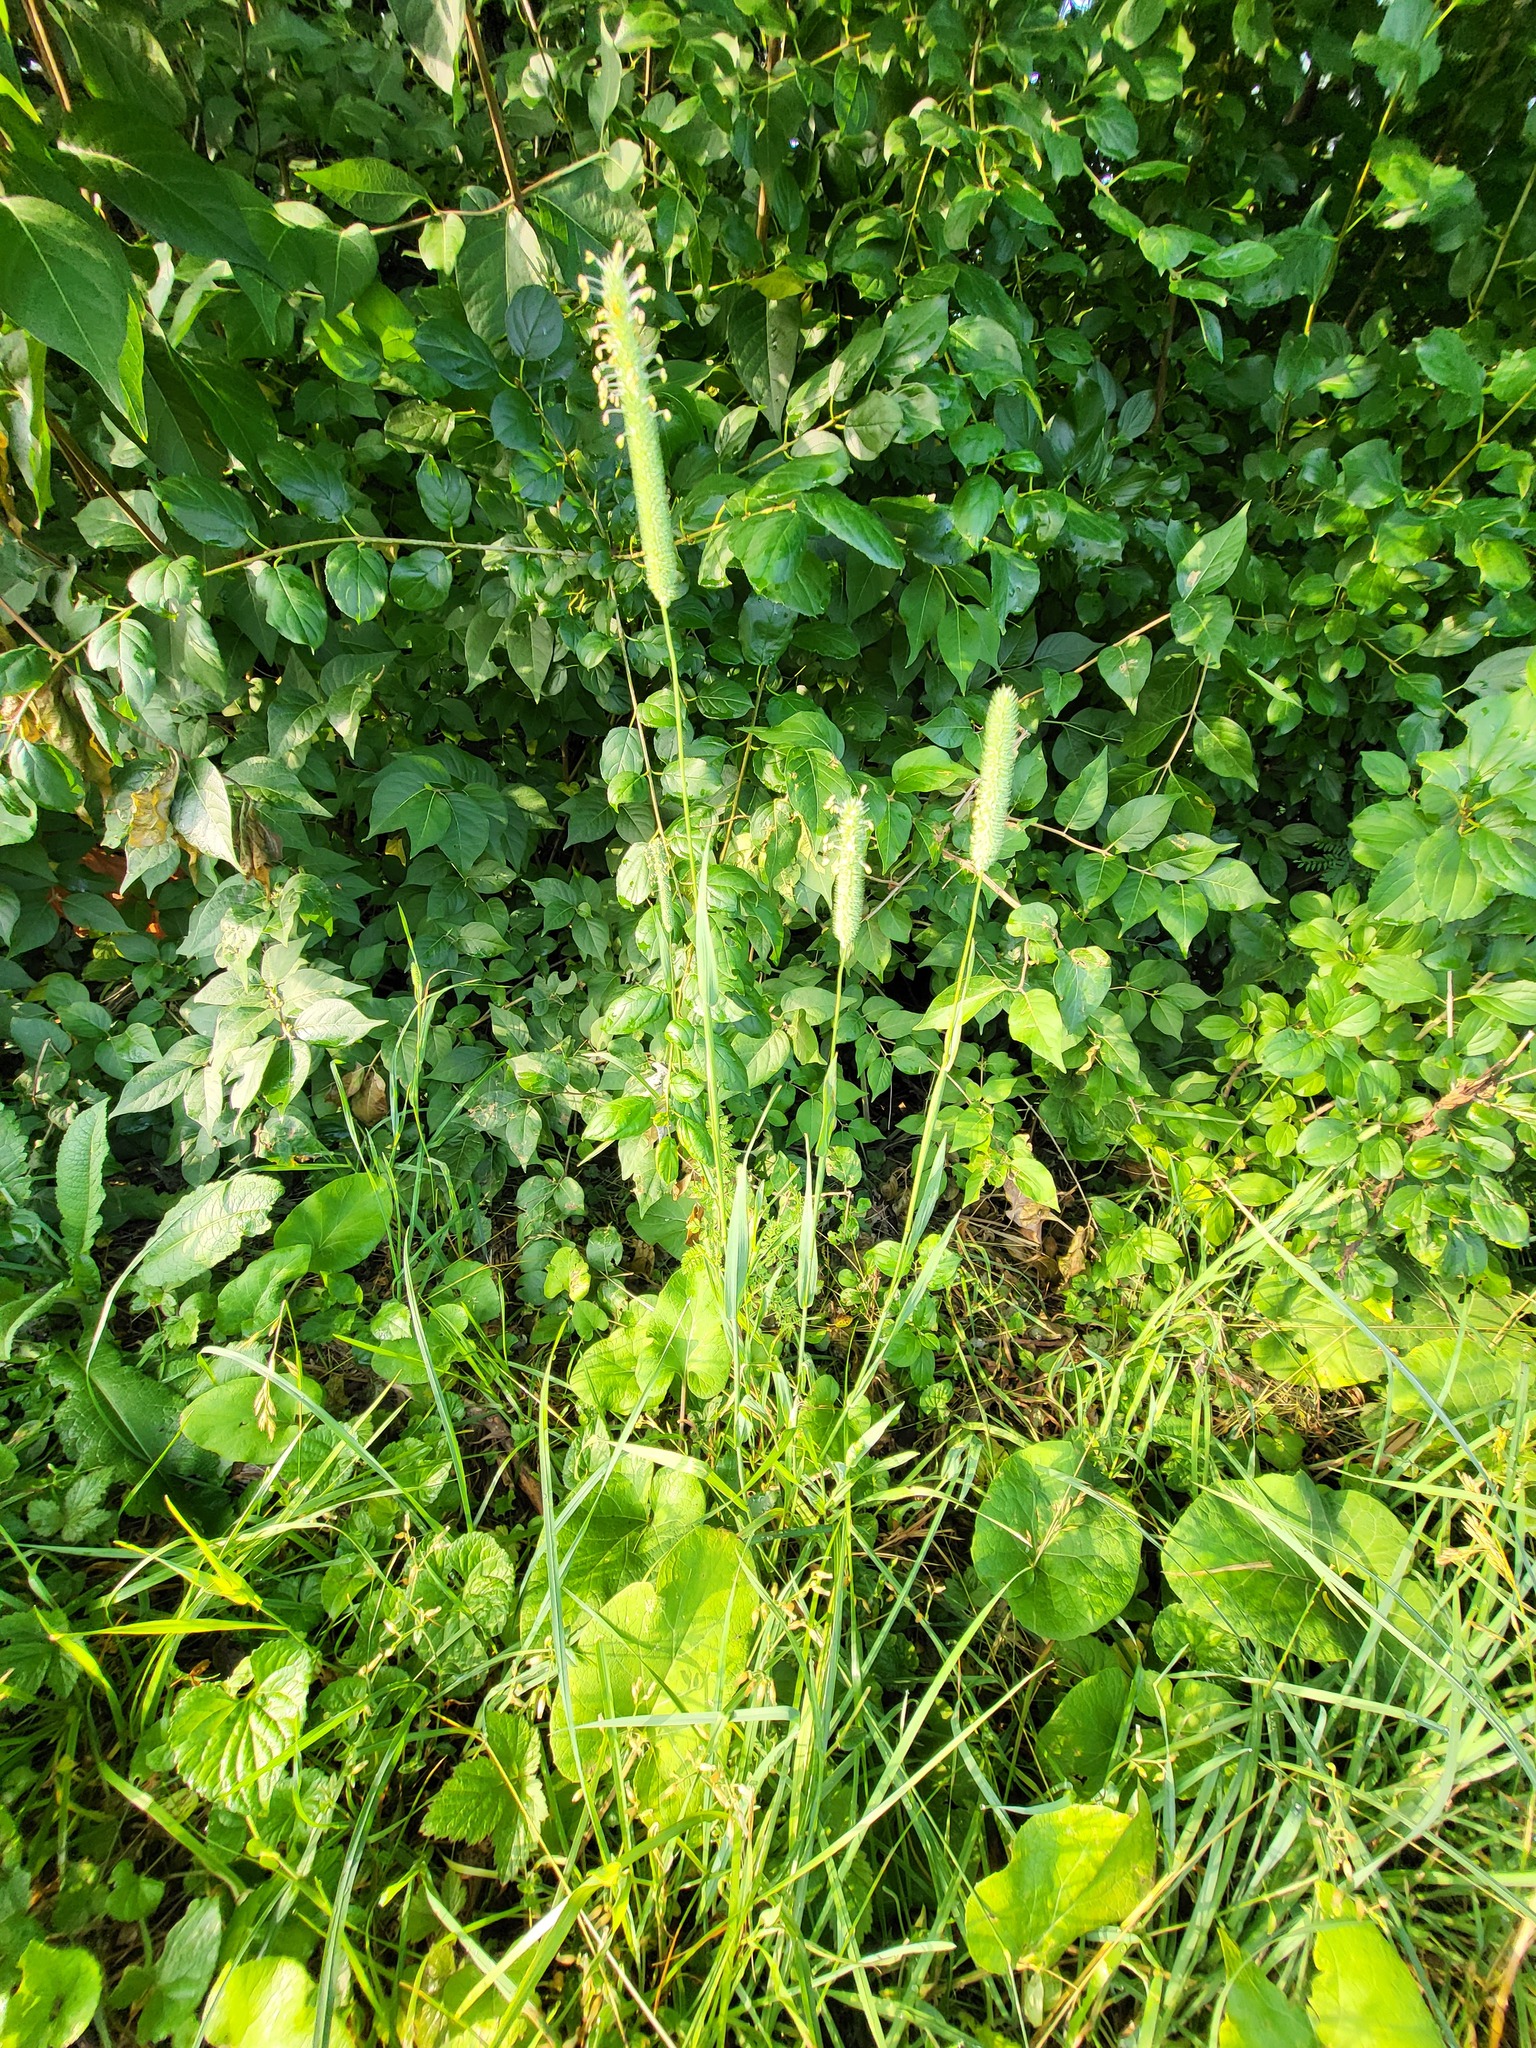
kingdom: Plantae
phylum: Tracheophyta
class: Liliopsida
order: Poales
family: Poaceae
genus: Phleum
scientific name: Phleum pratense
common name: Timothy grass
